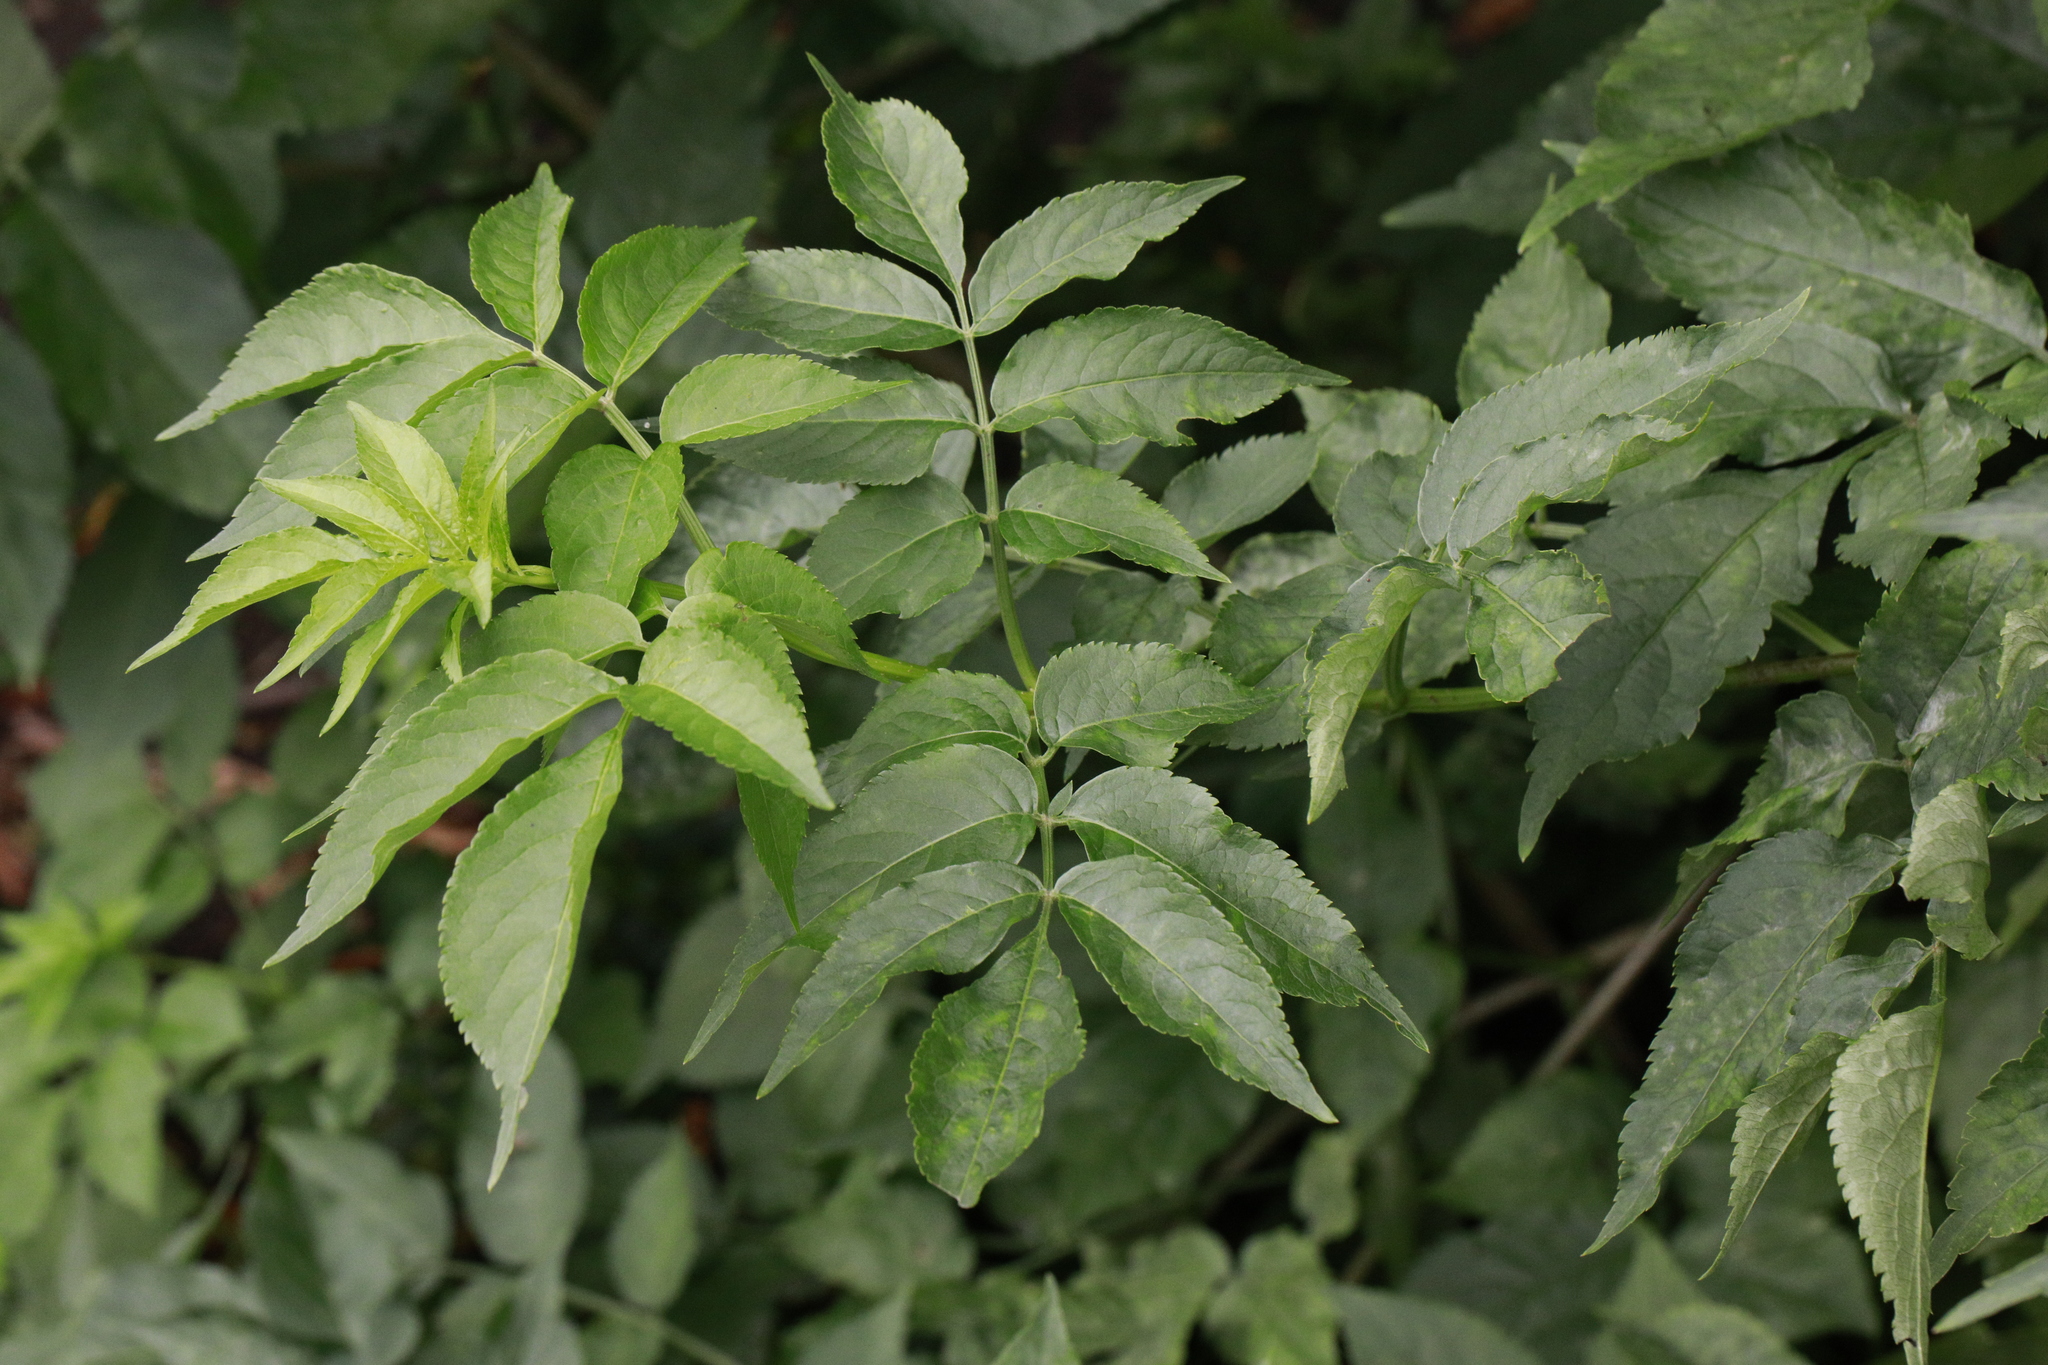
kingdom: Plantae
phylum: Tracheophyta
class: Magnoliopsida
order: Dipsacales
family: Viburnaceae
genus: Sambucus
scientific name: Sambucus nigra
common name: Elder
